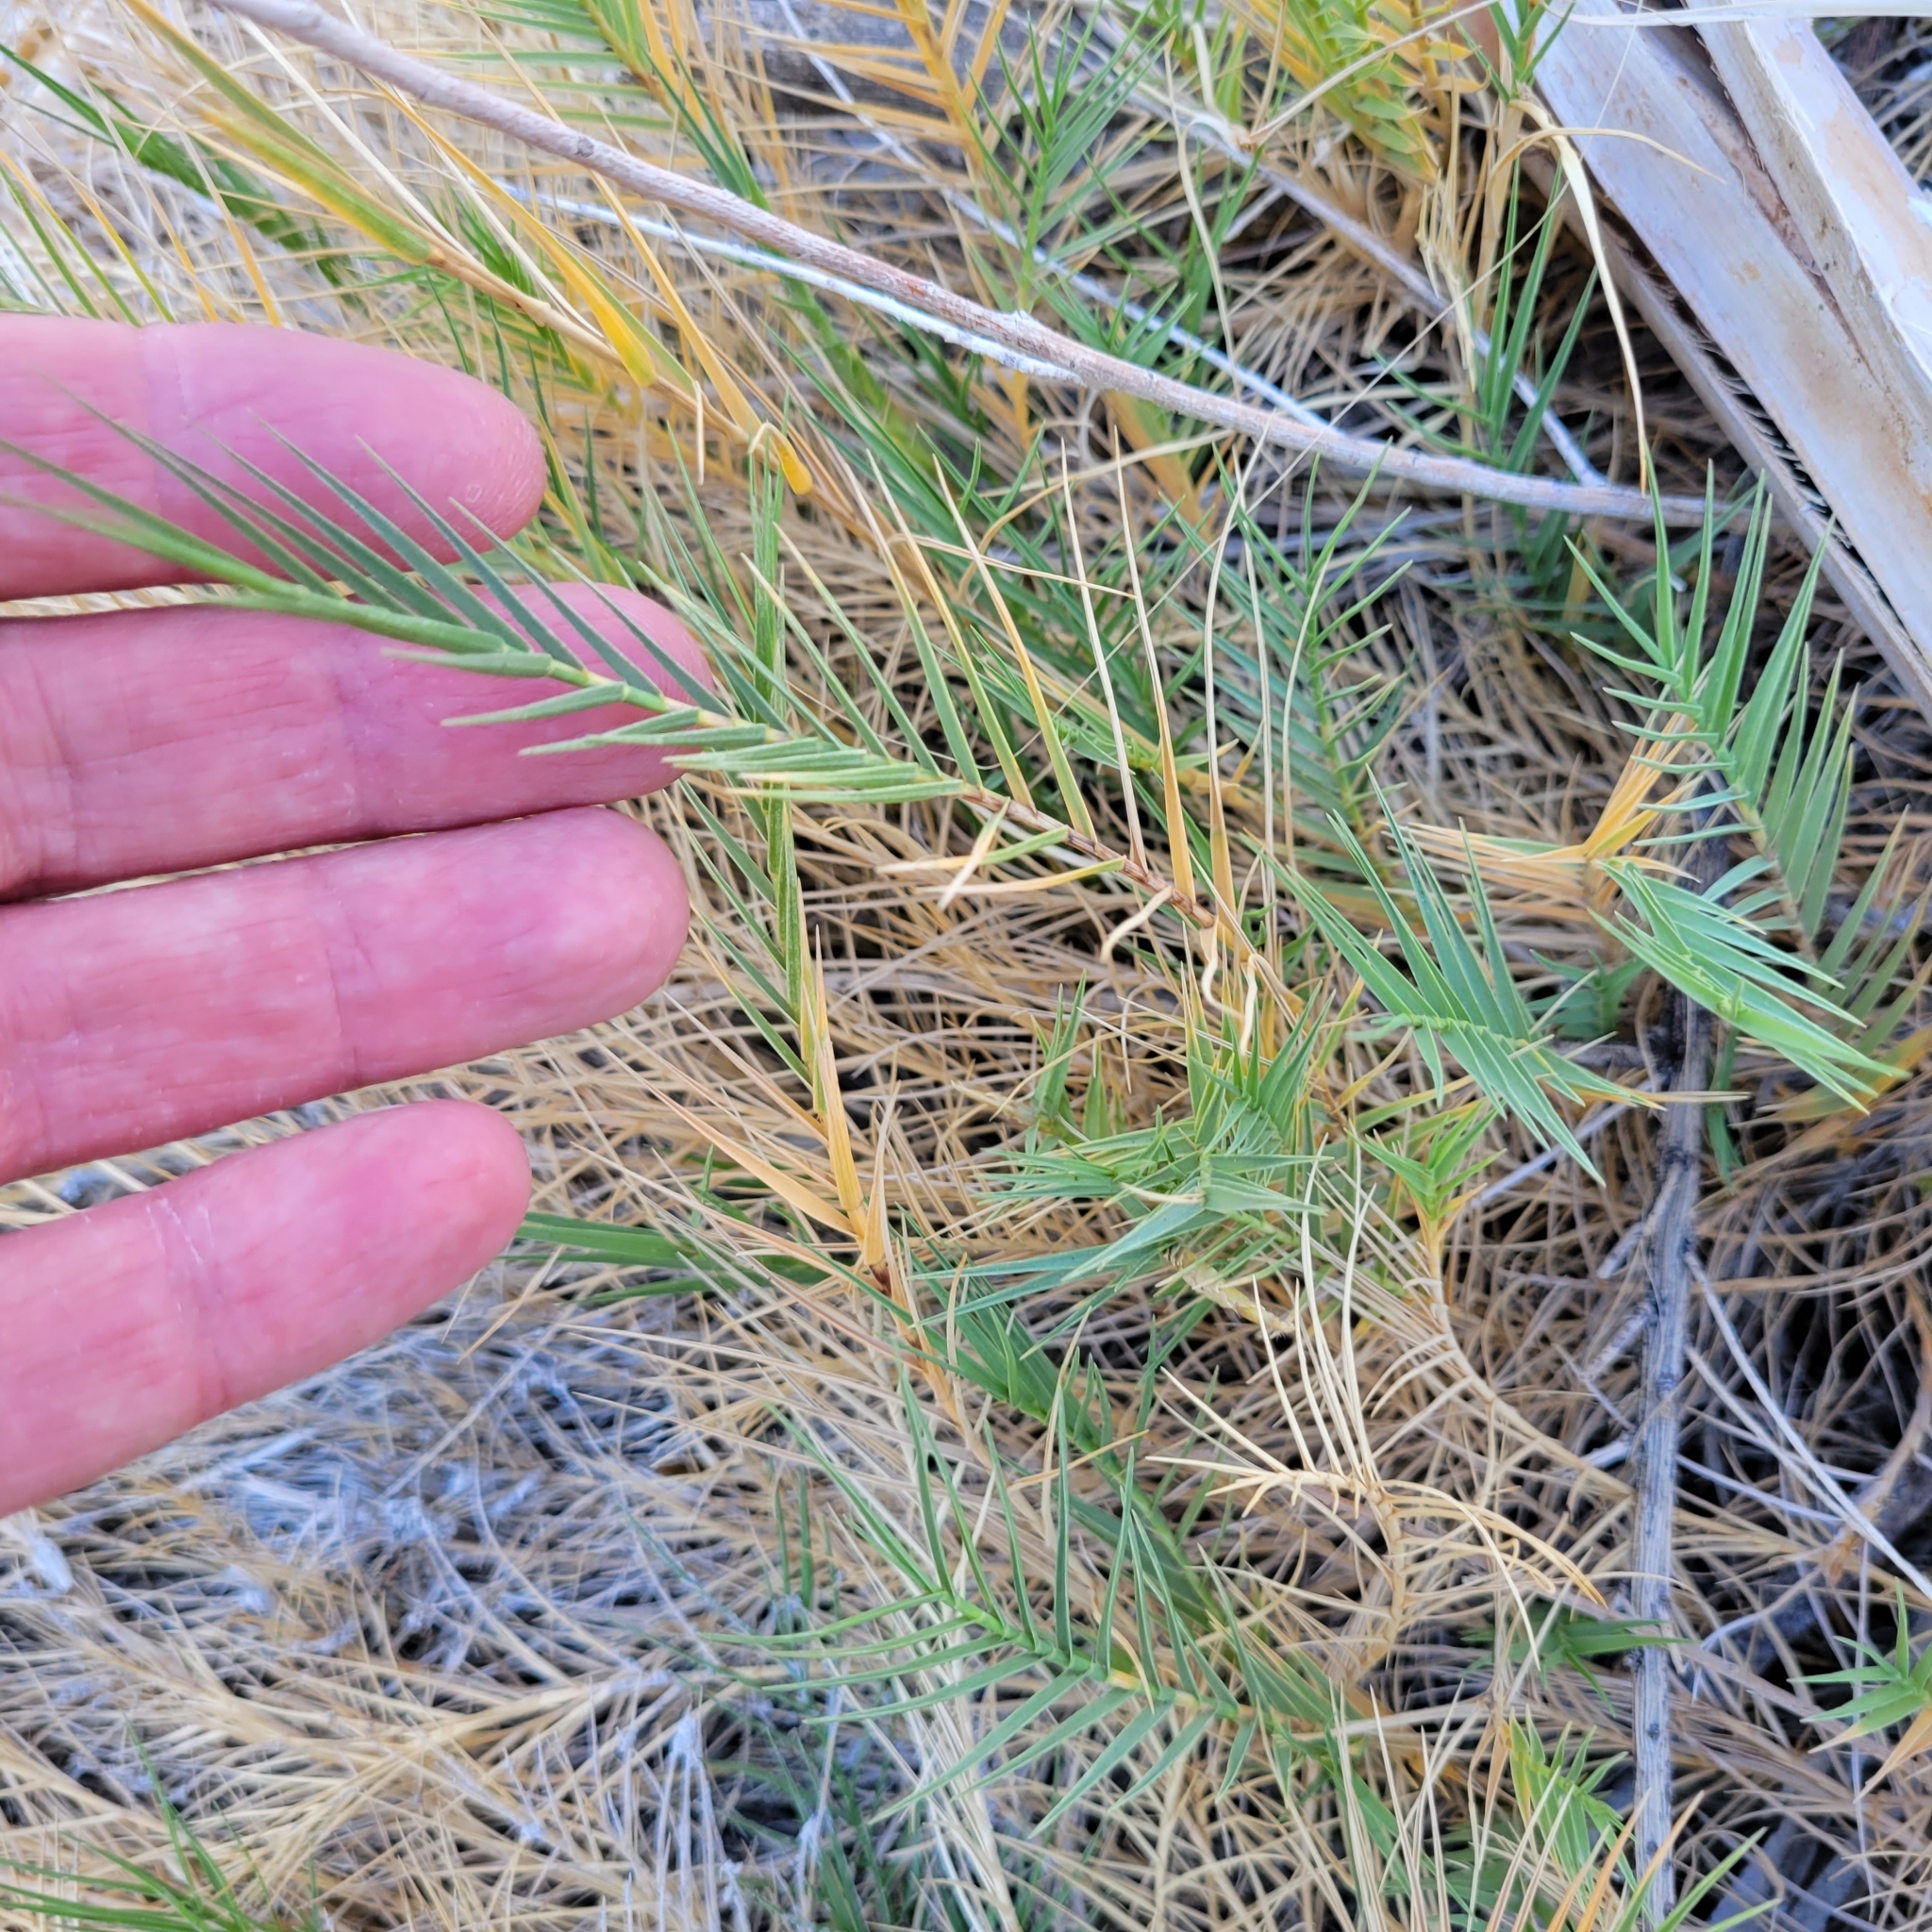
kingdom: Plantae
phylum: Tracheophyta
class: Liliopsida
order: Poales
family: Poaceae
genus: Distichlis
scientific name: Distichlis spicata
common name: Saltgrass
